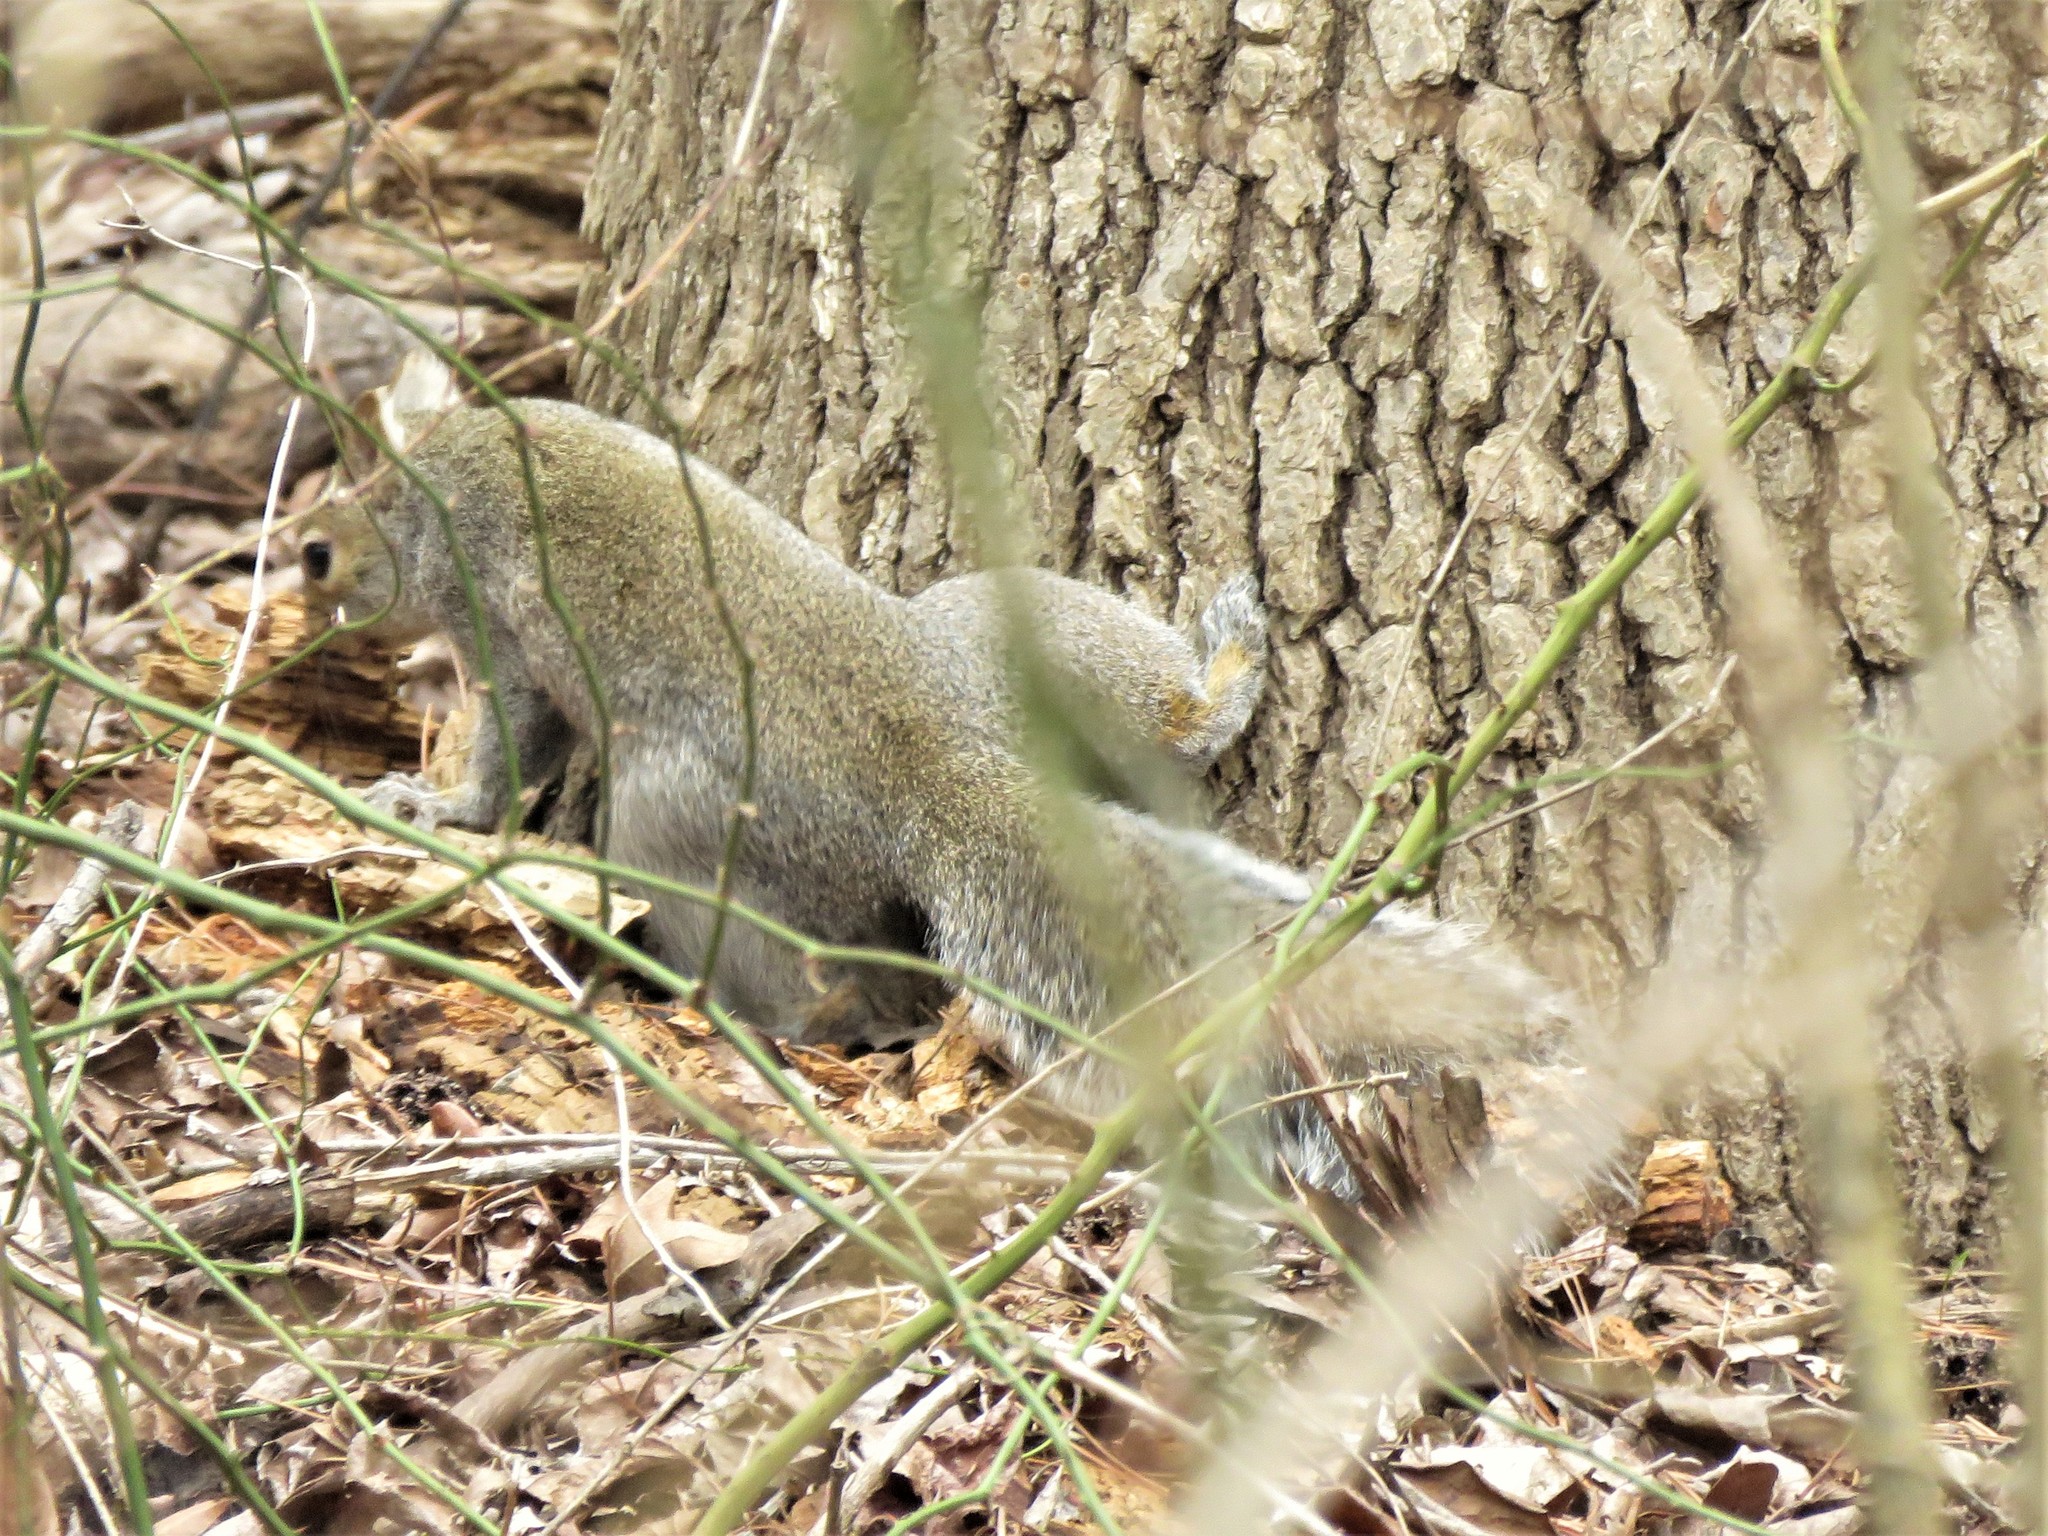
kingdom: Animalia
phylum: Chordata
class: Mammalia
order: Rodentia
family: Sciuridae
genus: Sciurus
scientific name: Sciurus carolinensis
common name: Eastern gray squirrel
